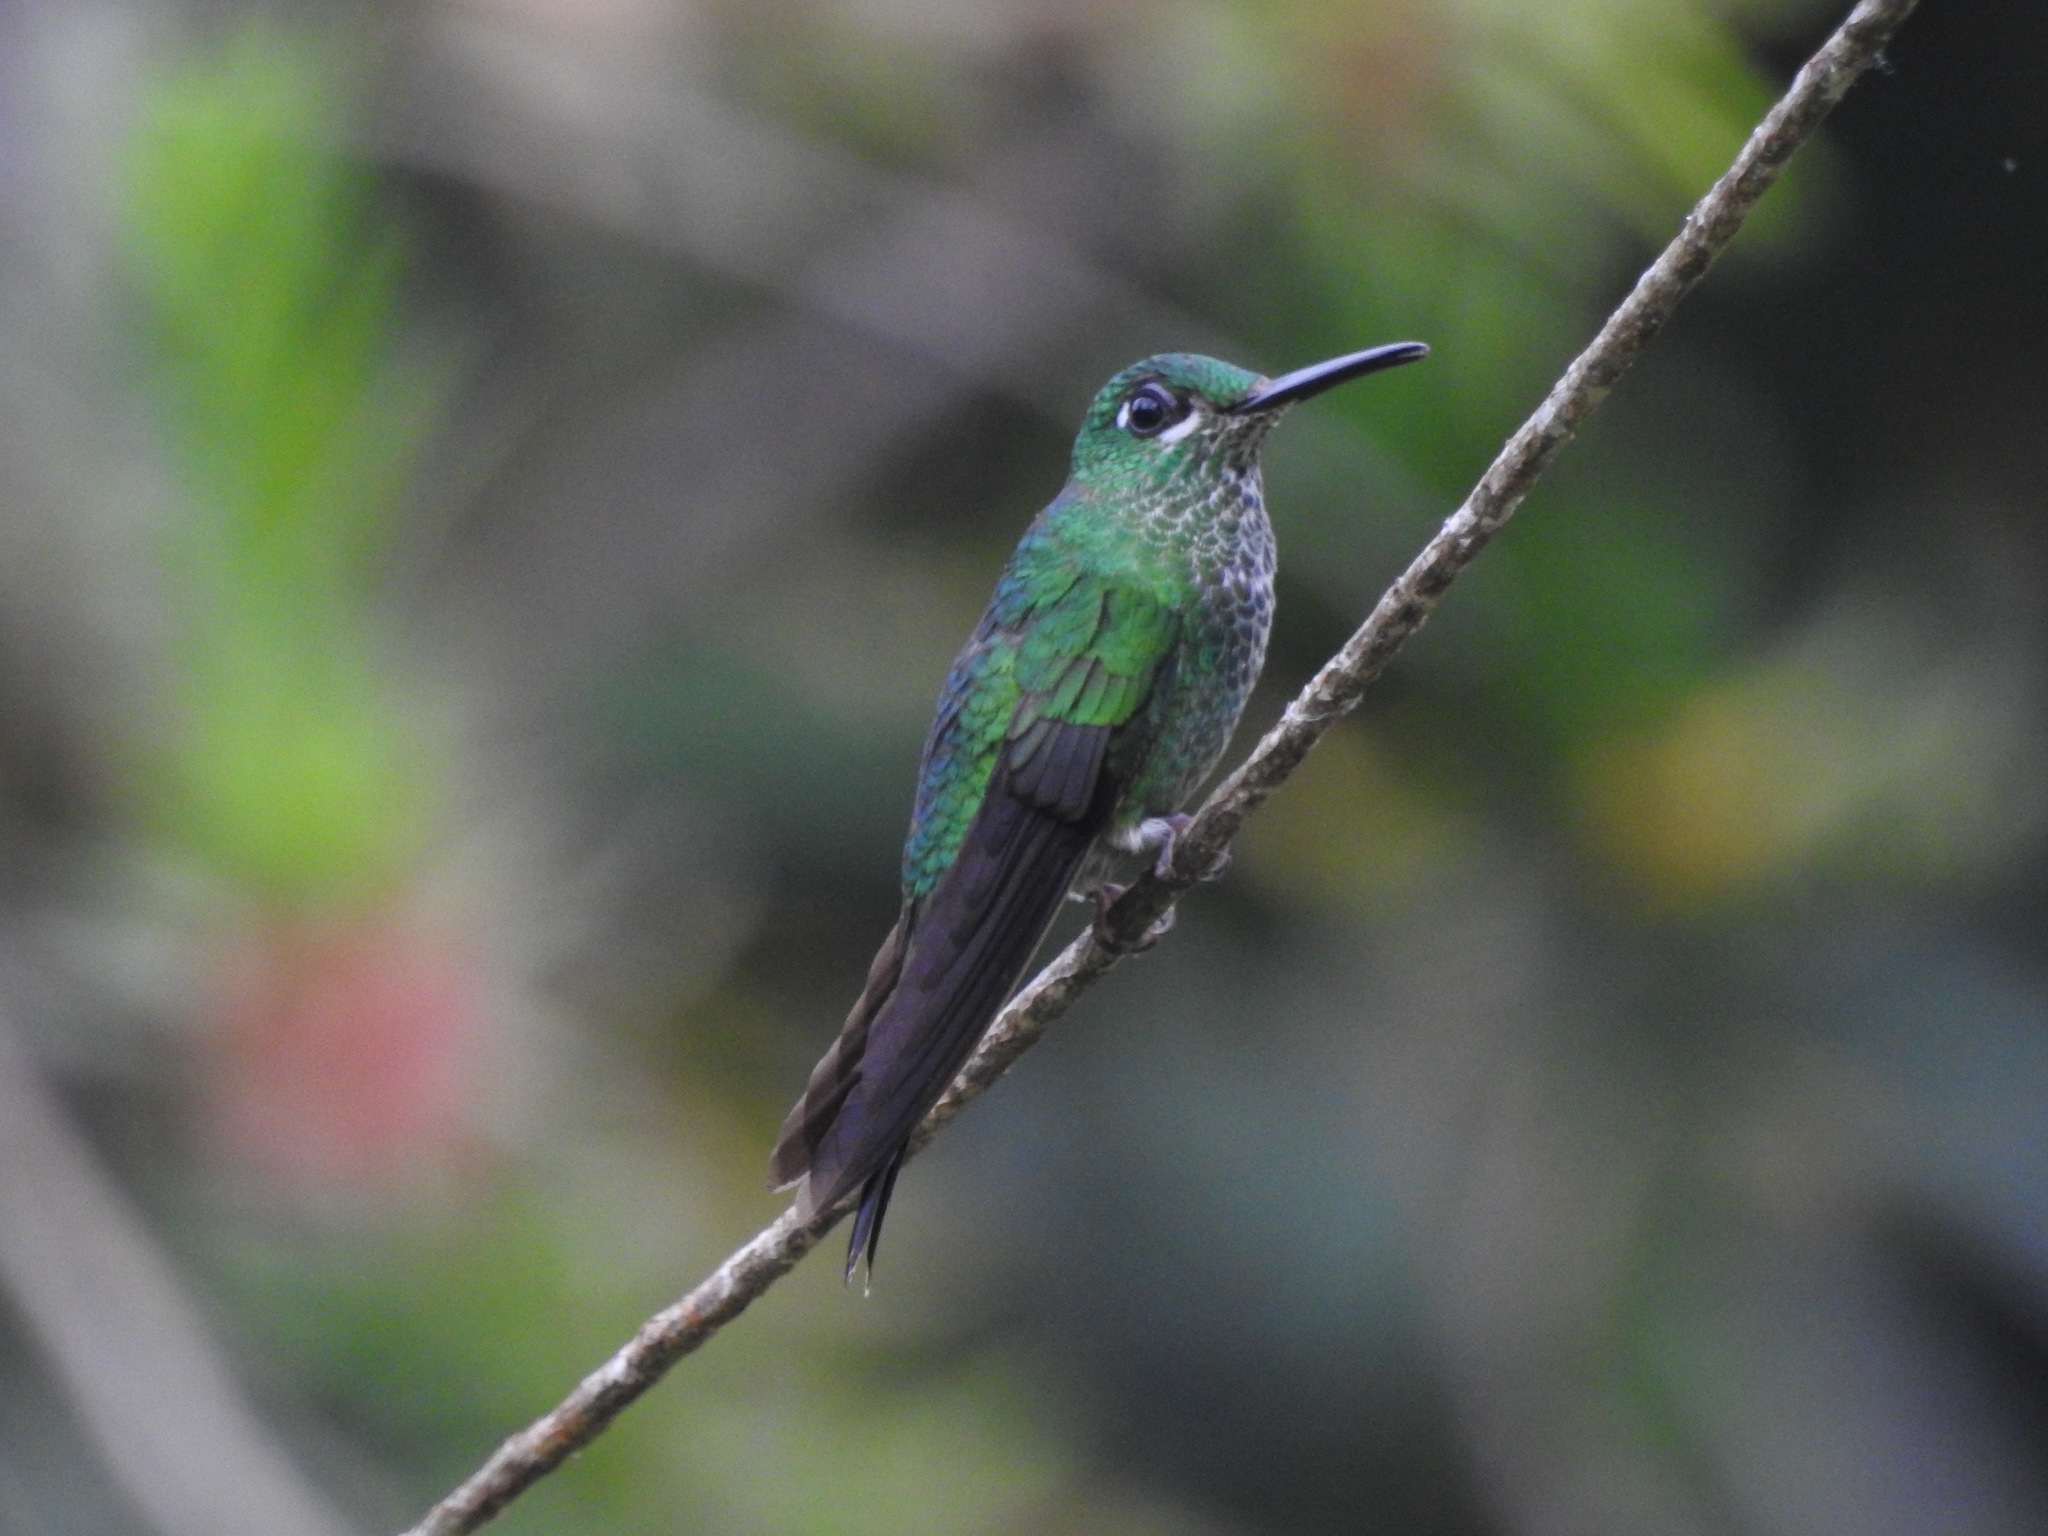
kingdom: Animalia
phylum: Chordata
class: Aves
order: Apodiformes
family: Trochilidae
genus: Heliodoxa
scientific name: Heliodoxa jacula
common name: Green-crowned brilliant
